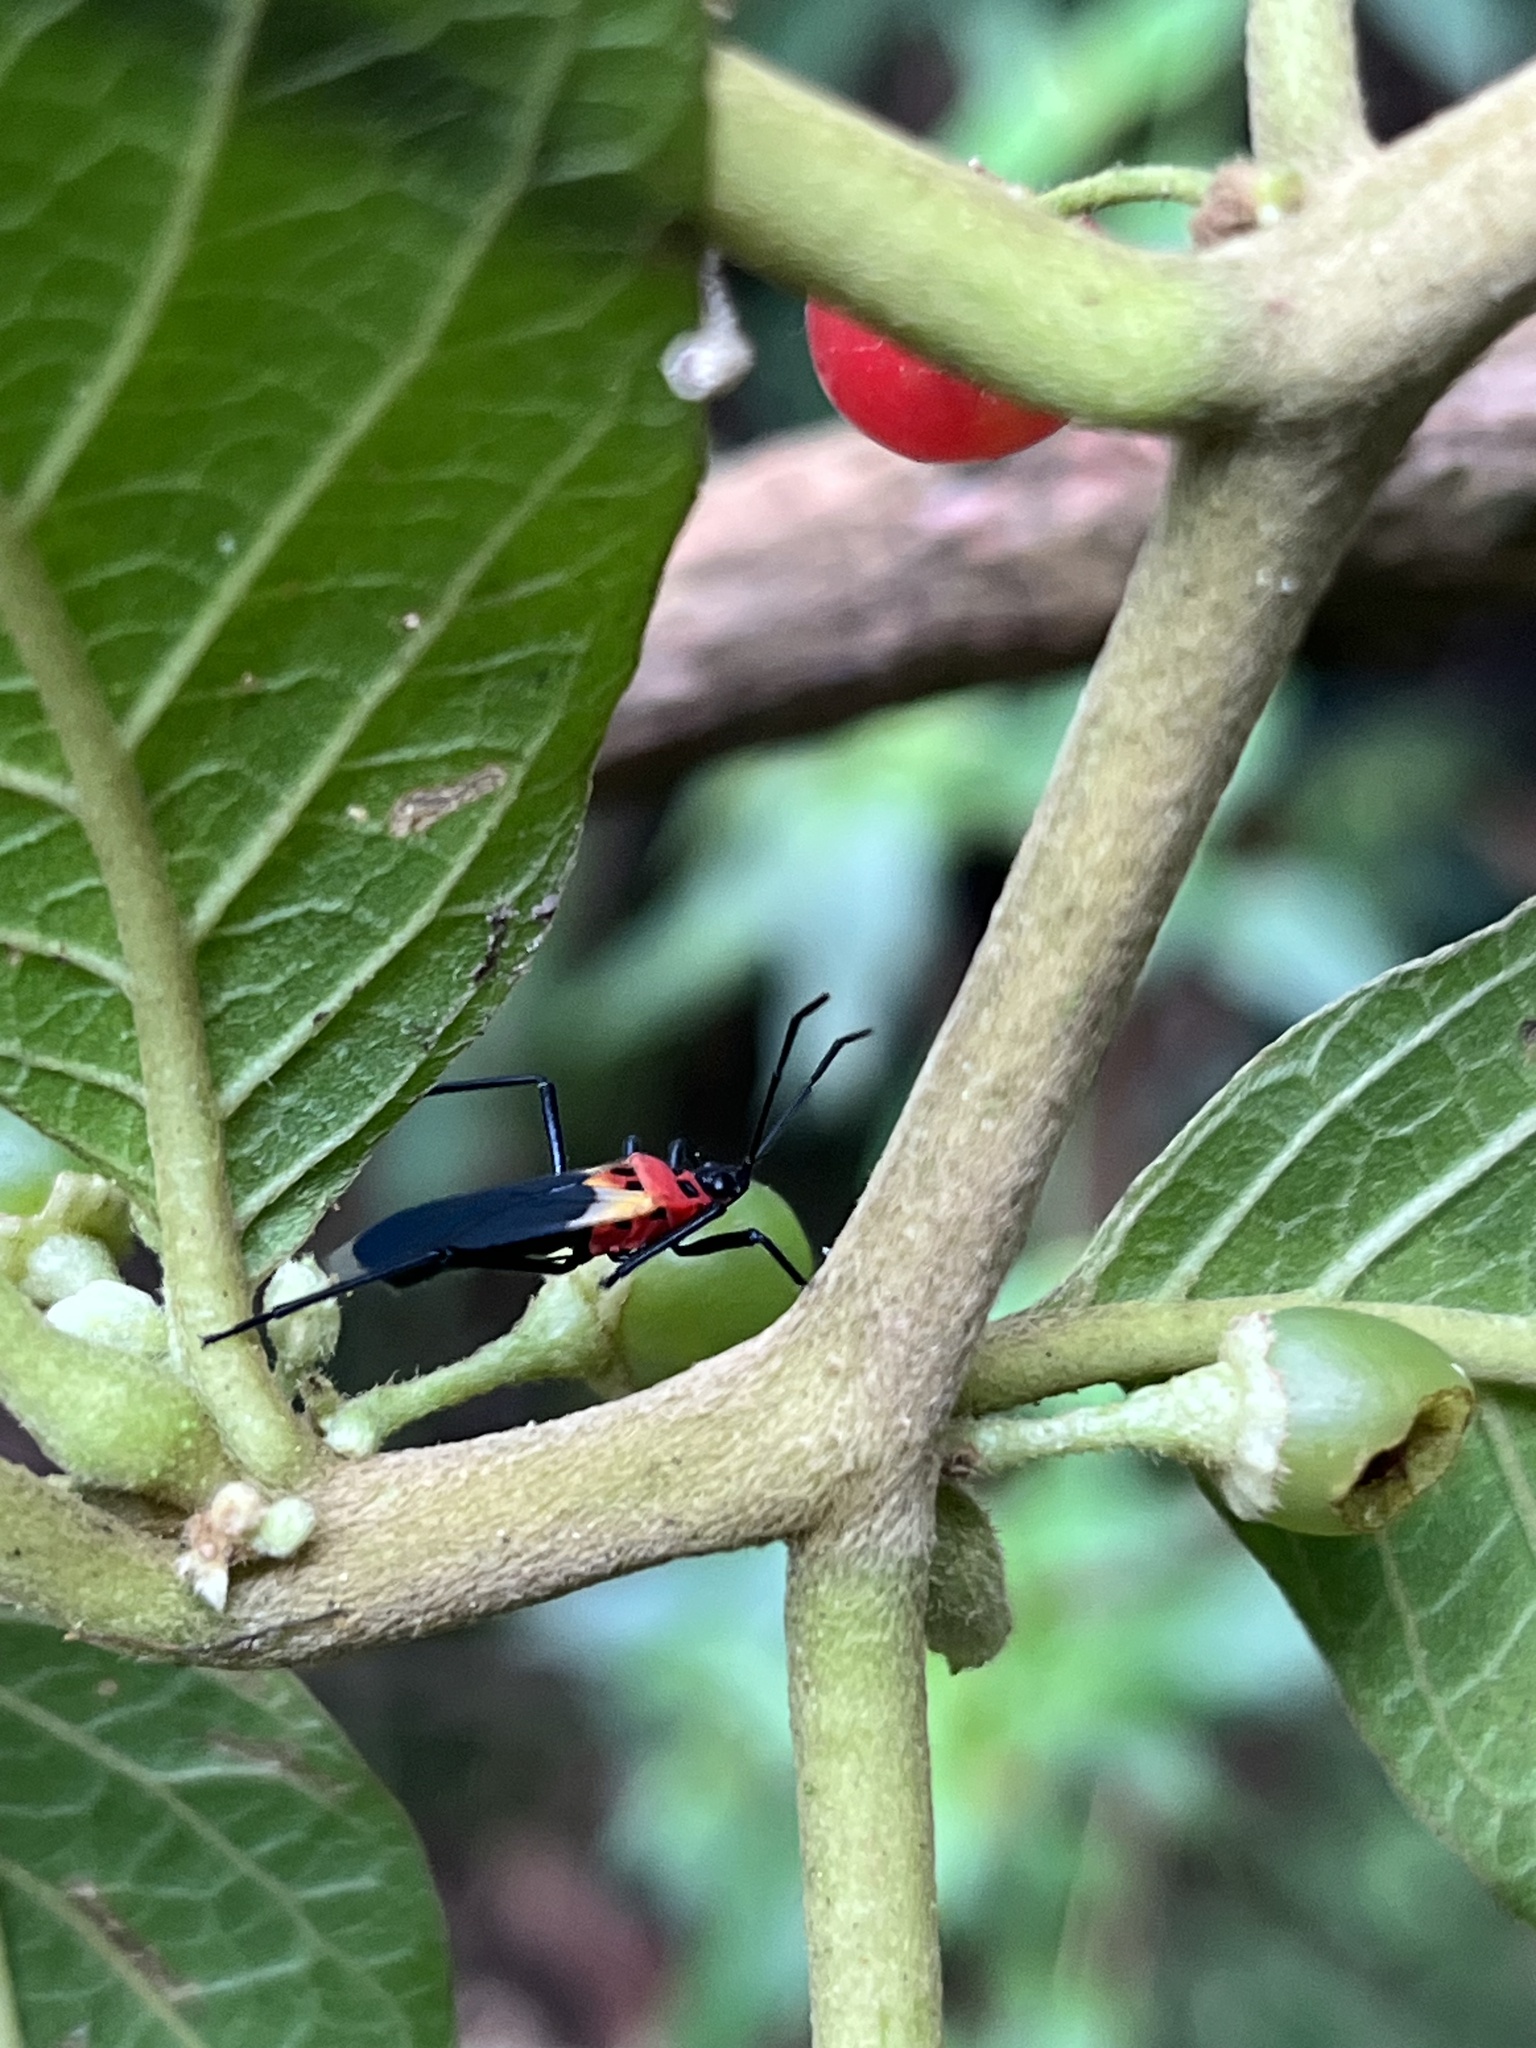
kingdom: Animalia
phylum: Arthropoda
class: Insecta
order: Hemiptera
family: Lygaeidae
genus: Acroleucus
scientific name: Acroleucus nobilis
